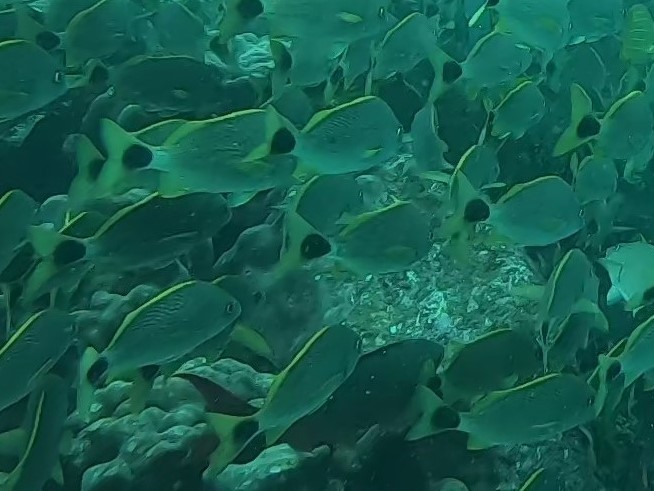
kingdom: Animalia
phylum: Chordata
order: Perciformes
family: Haemulidae
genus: Haemulon
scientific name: Haemulon steindachneri
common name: Latin grunt
